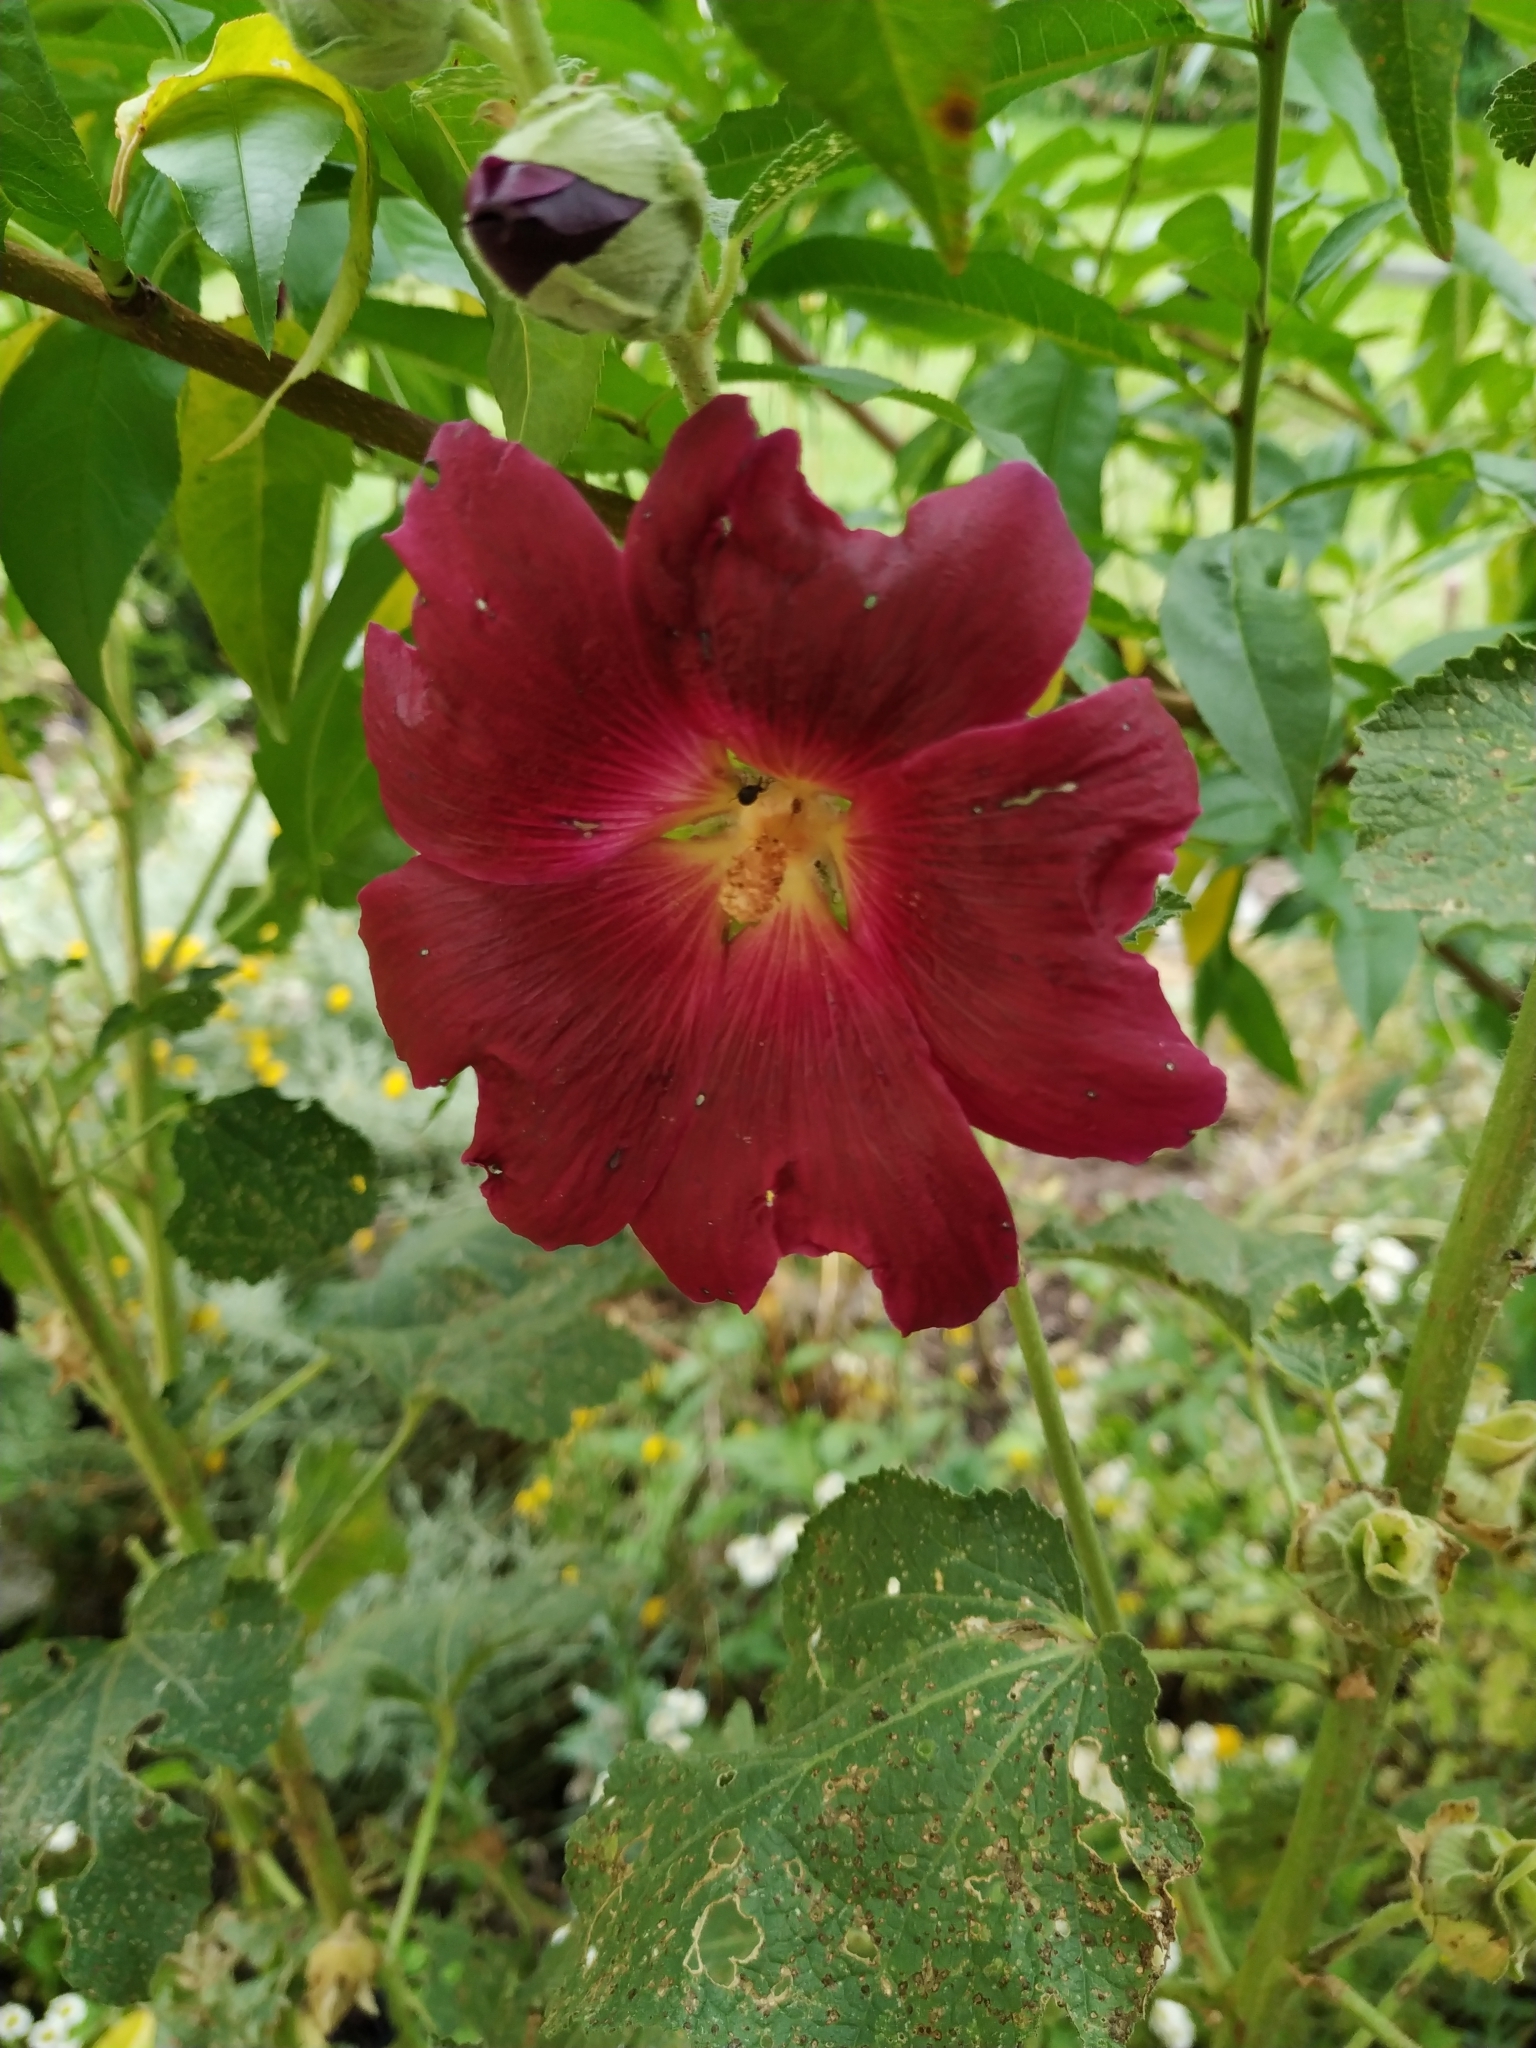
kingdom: Plantae
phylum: Tracheophyta
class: Magnoliopsida
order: Malvales
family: Malvaceae
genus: Alcea
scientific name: Alcea rosea
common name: Hollyhock
